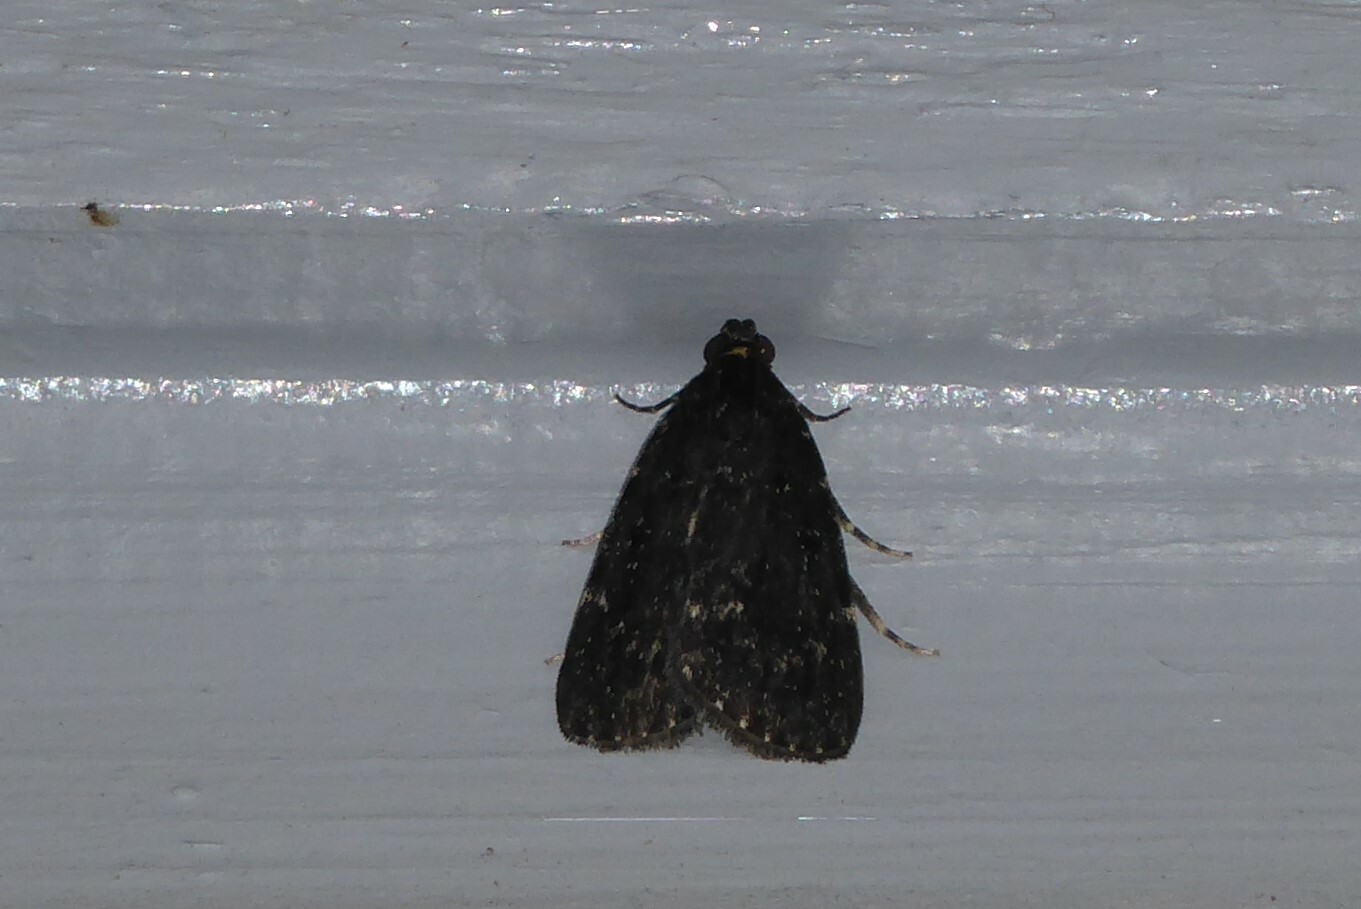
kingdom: Animalia
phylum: Arthropoda
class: Insecta
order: Lepidoptera
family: Pyralidae
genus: Stericta
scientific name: Stericta carbonalis
